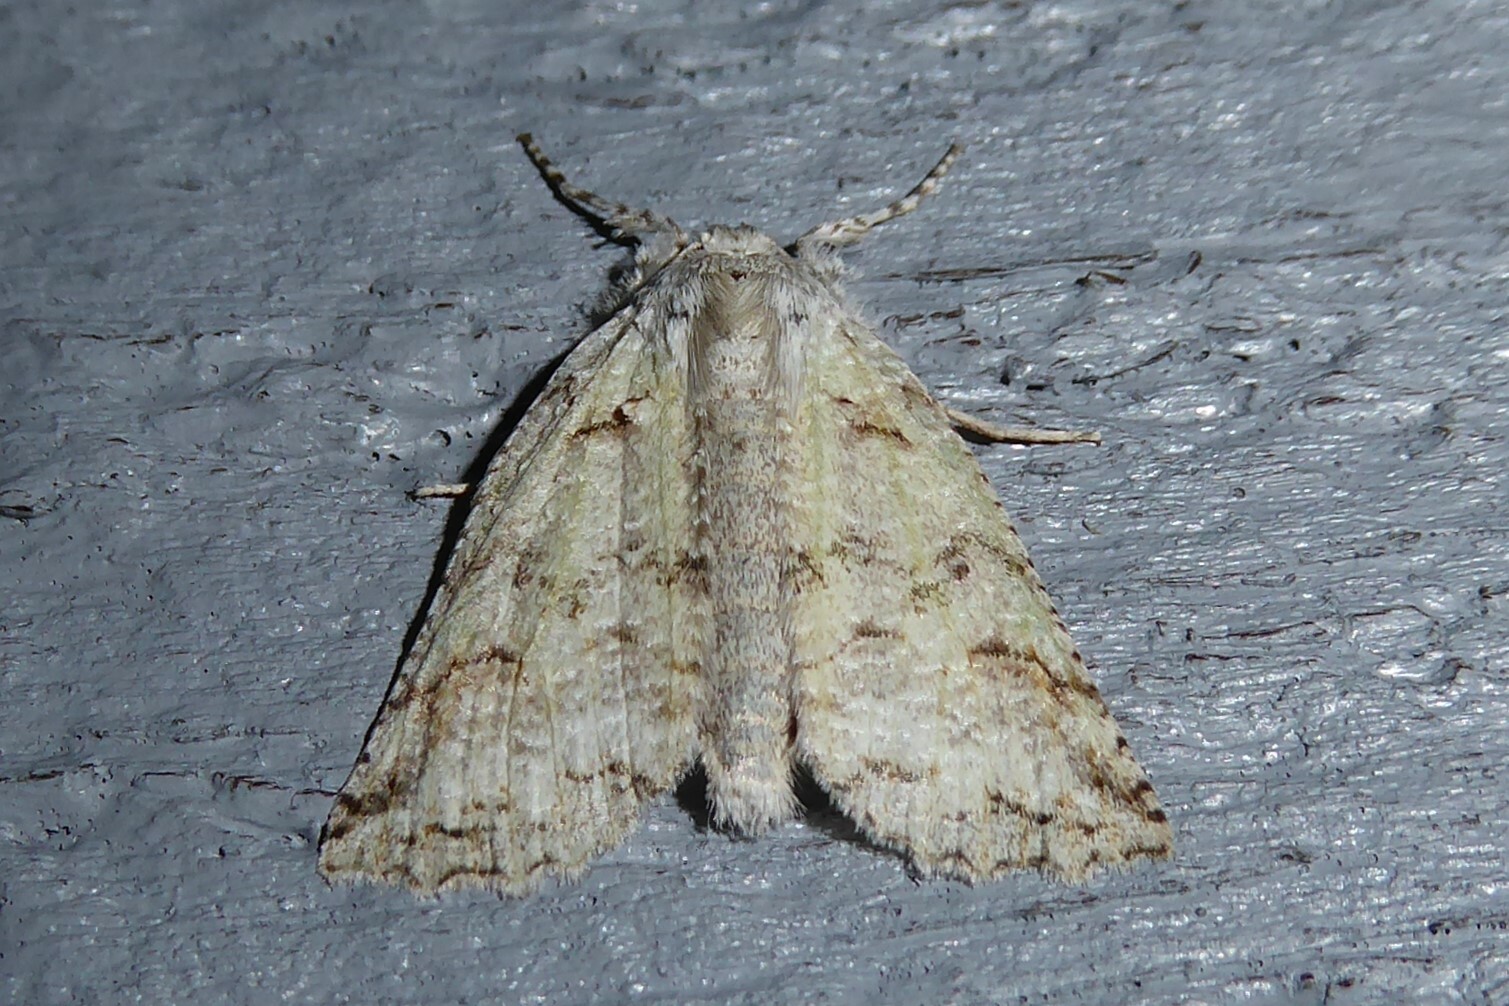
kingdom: Animalia
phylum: Arthropoda
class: Insecta
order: Lepidoptera
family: Geometridae
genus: Declana
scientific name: Declana floccosa
